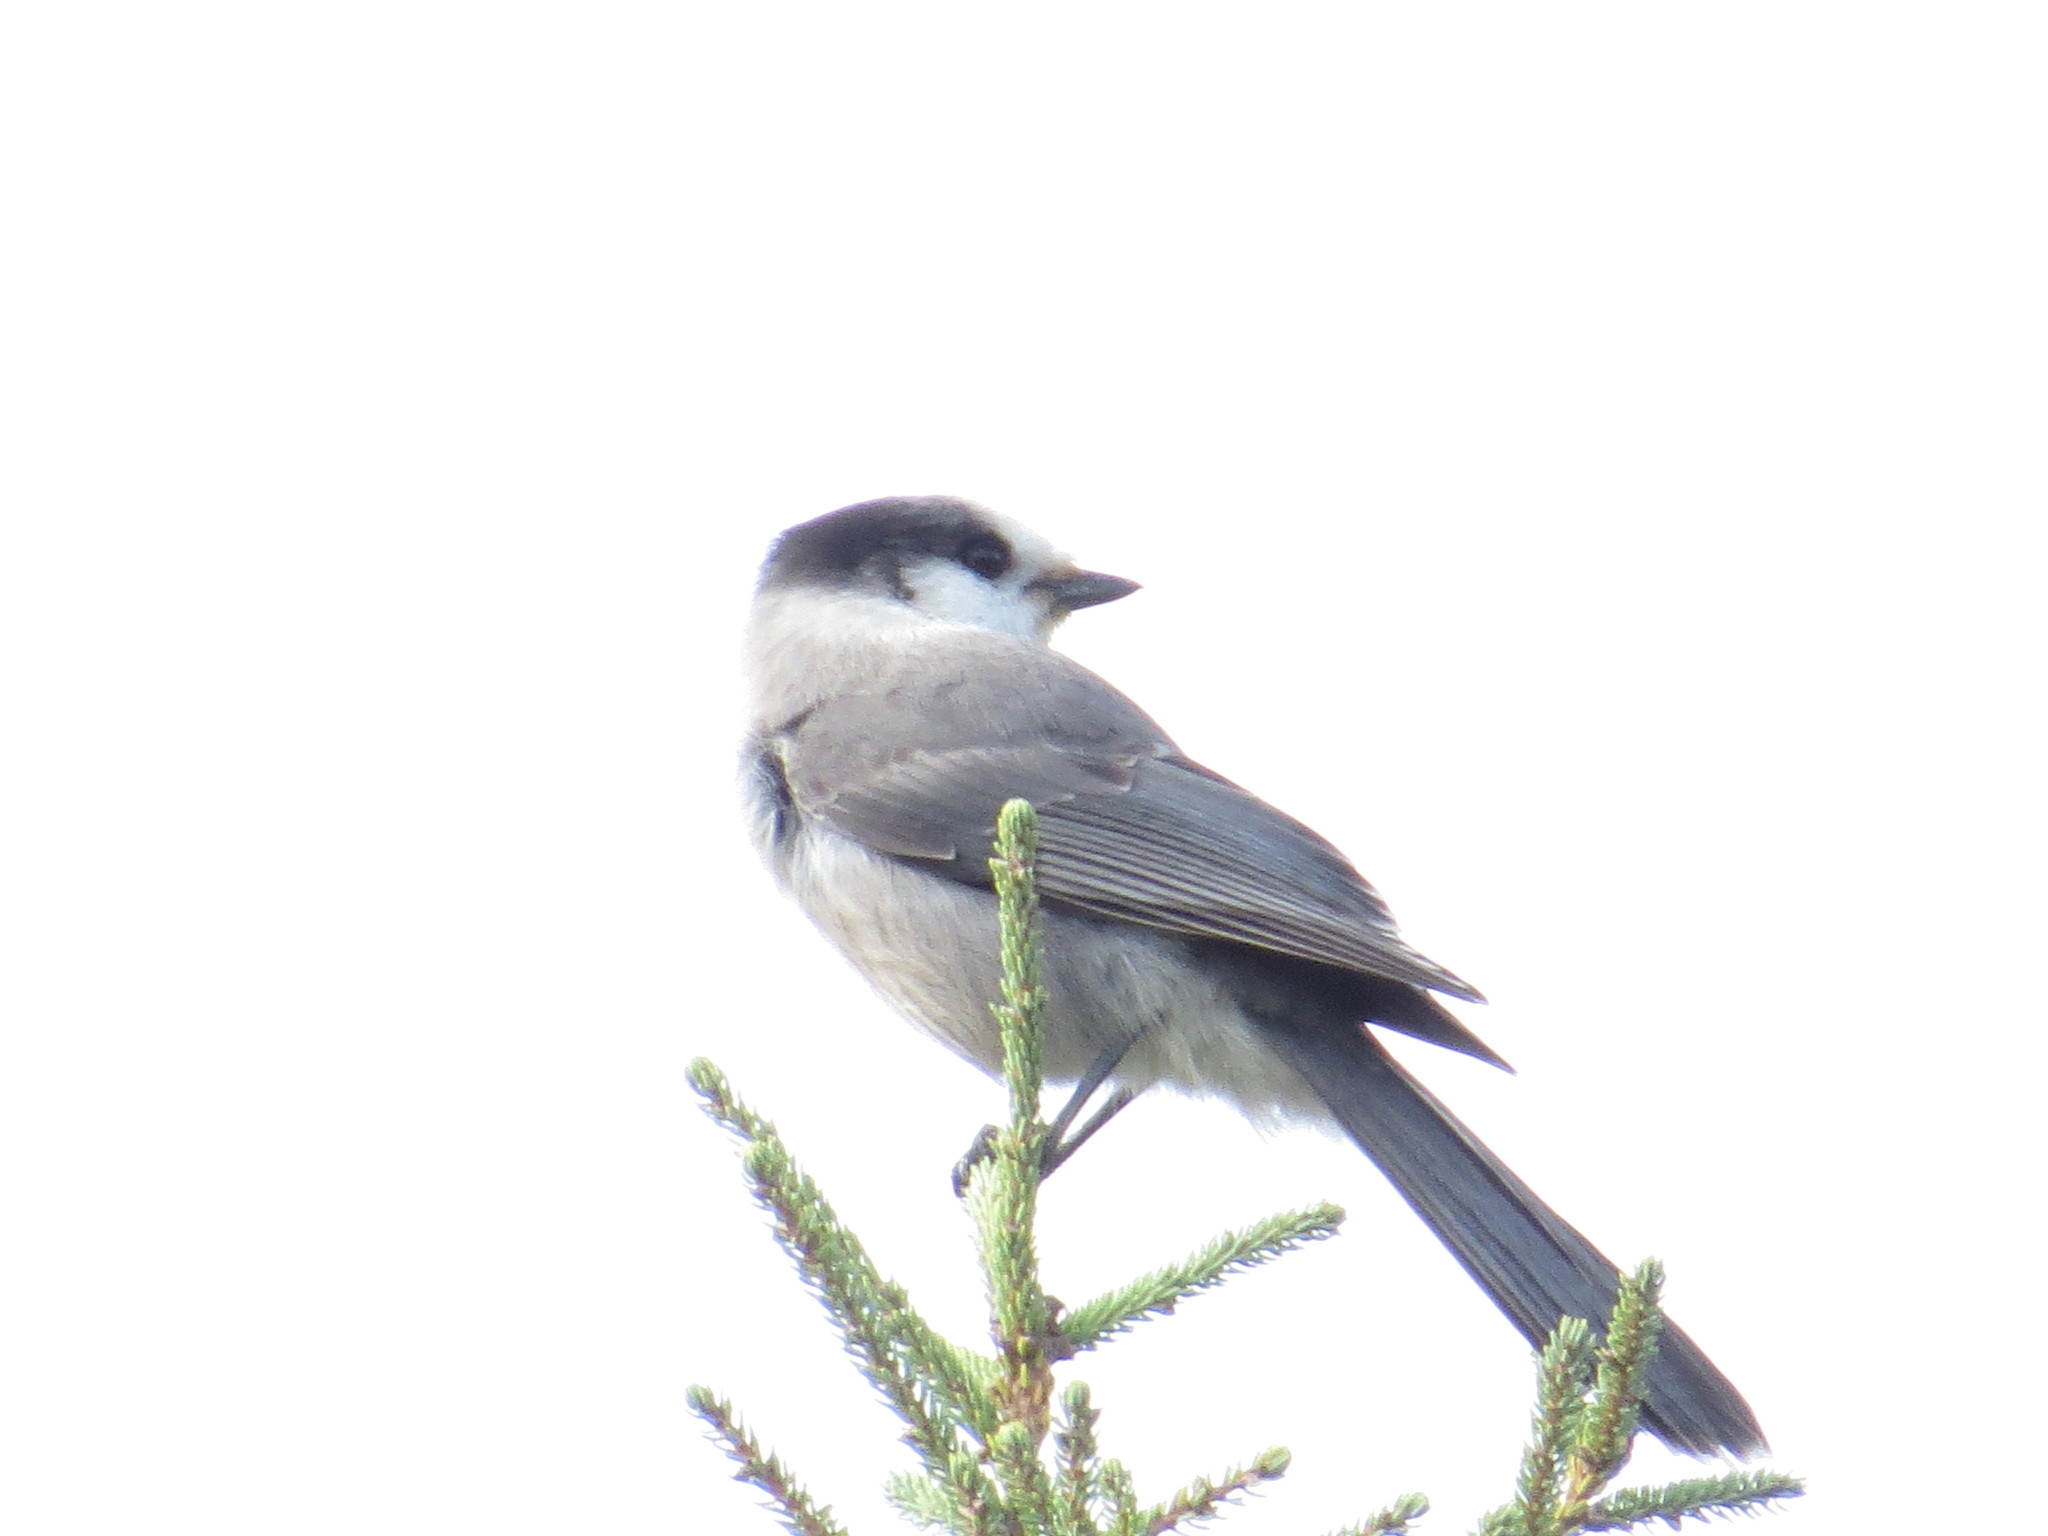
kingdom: Animalia
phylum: Chordata
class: Aves
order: Passeriformes
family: Corvidae
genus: Perisoreus
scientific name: Perisoreus canadensis
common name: Gray jay
